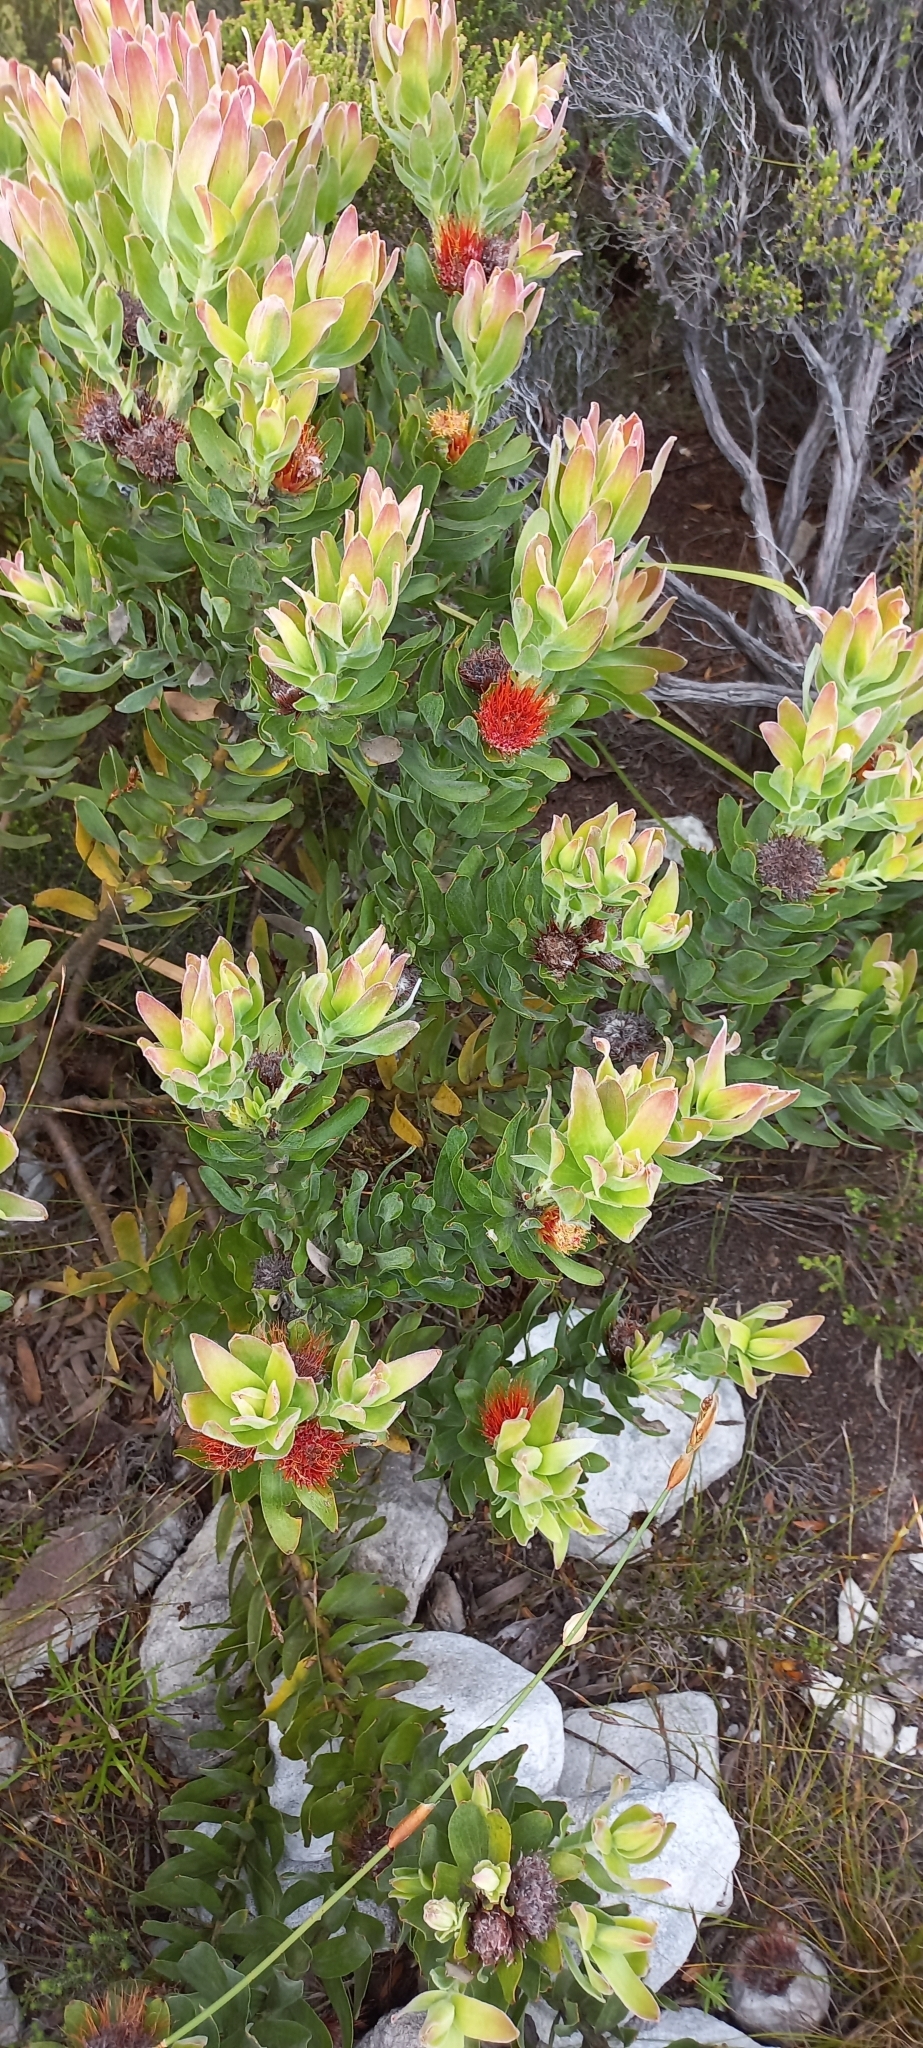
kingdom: Plantae
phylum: Tracheophyta
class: Magnoliopsida
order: Proteales
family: Proteaceae
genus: Leucospermum
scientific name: Leucospermum oleifolium
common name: Matches
